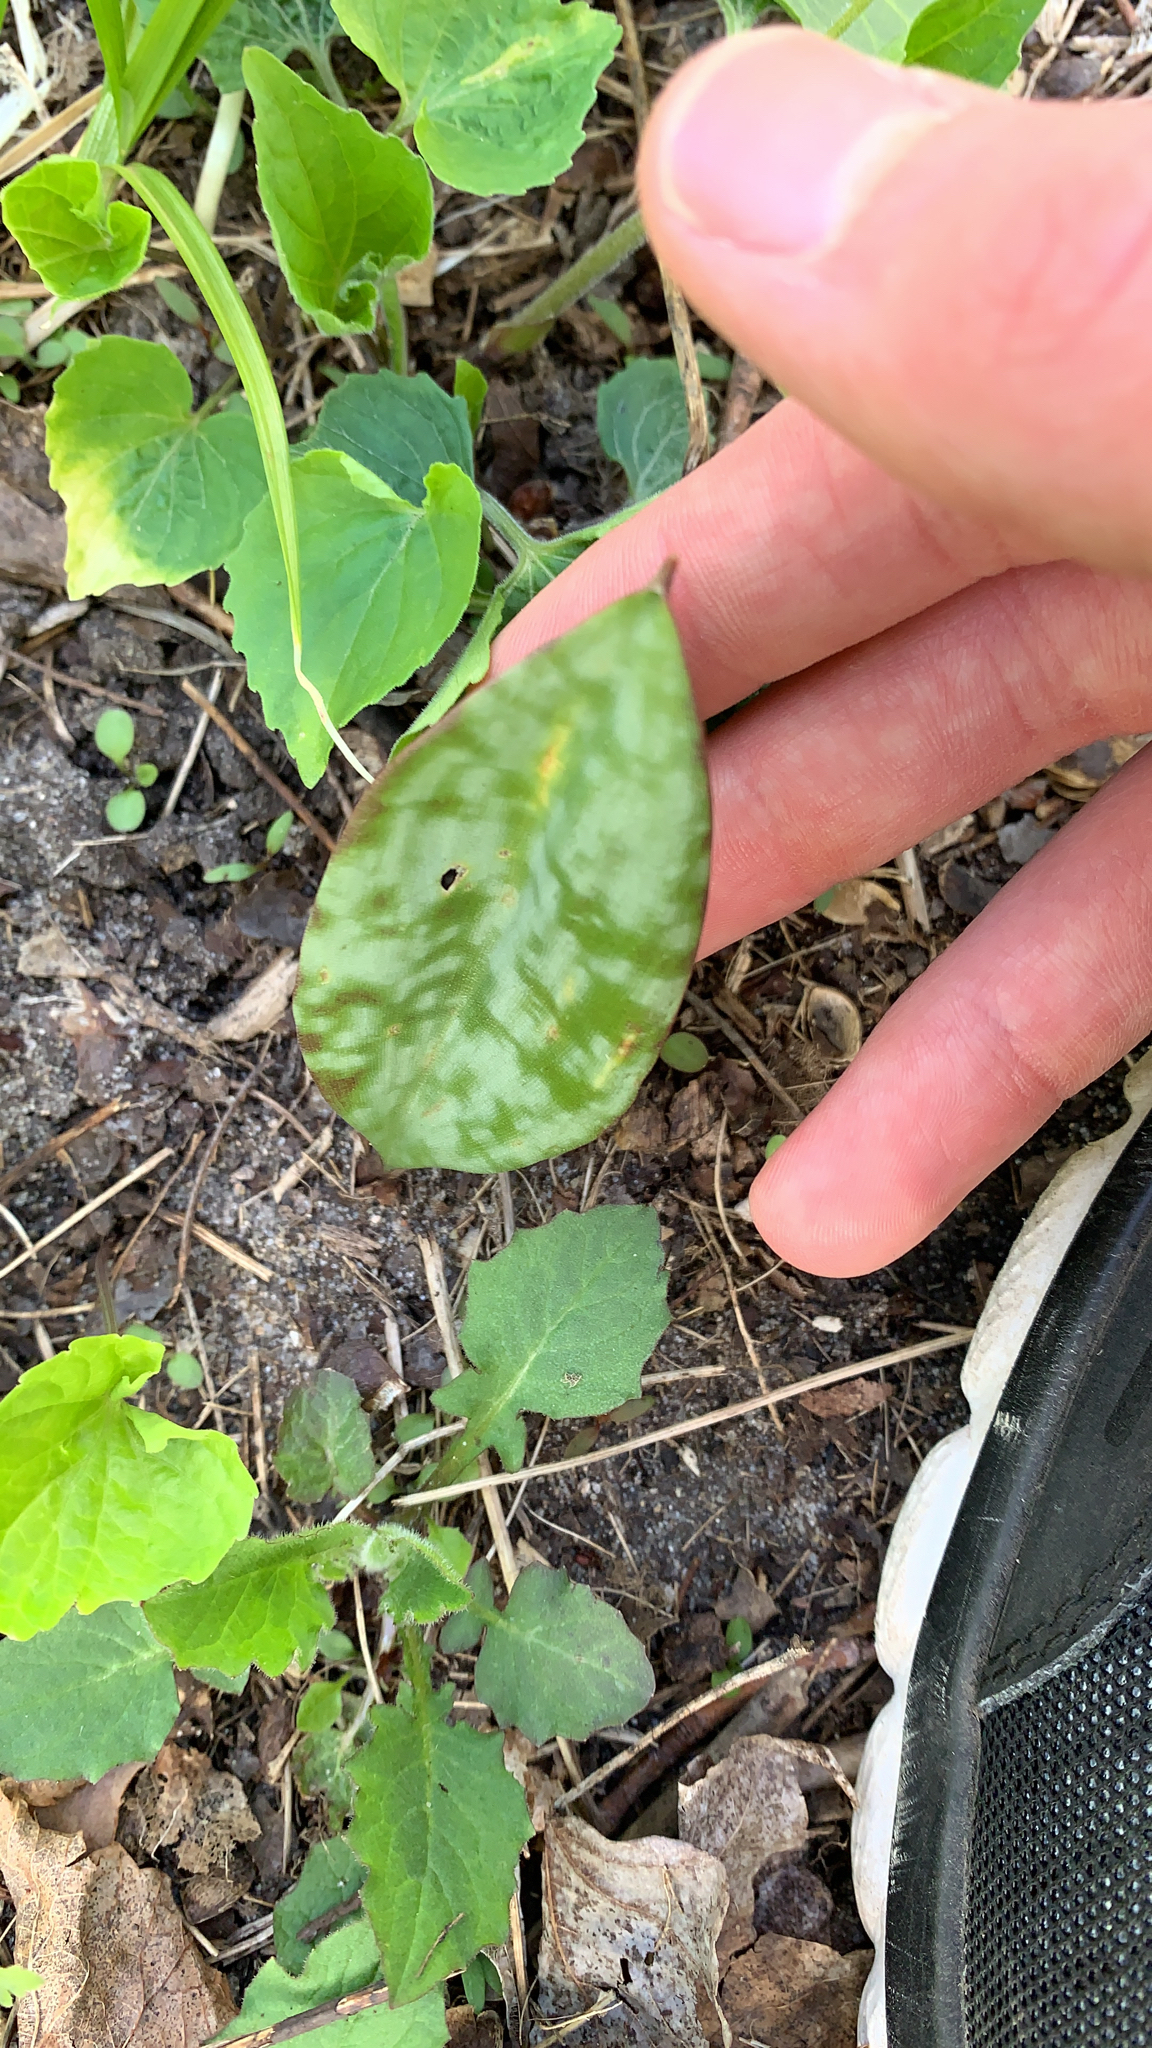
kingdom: Plantae
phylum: Tracheophyta
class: Liliopsida
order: Liliales
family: Liliaceae
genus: Erythronium
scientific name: Erythronium americanum
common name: Yellow adder's-tongue
